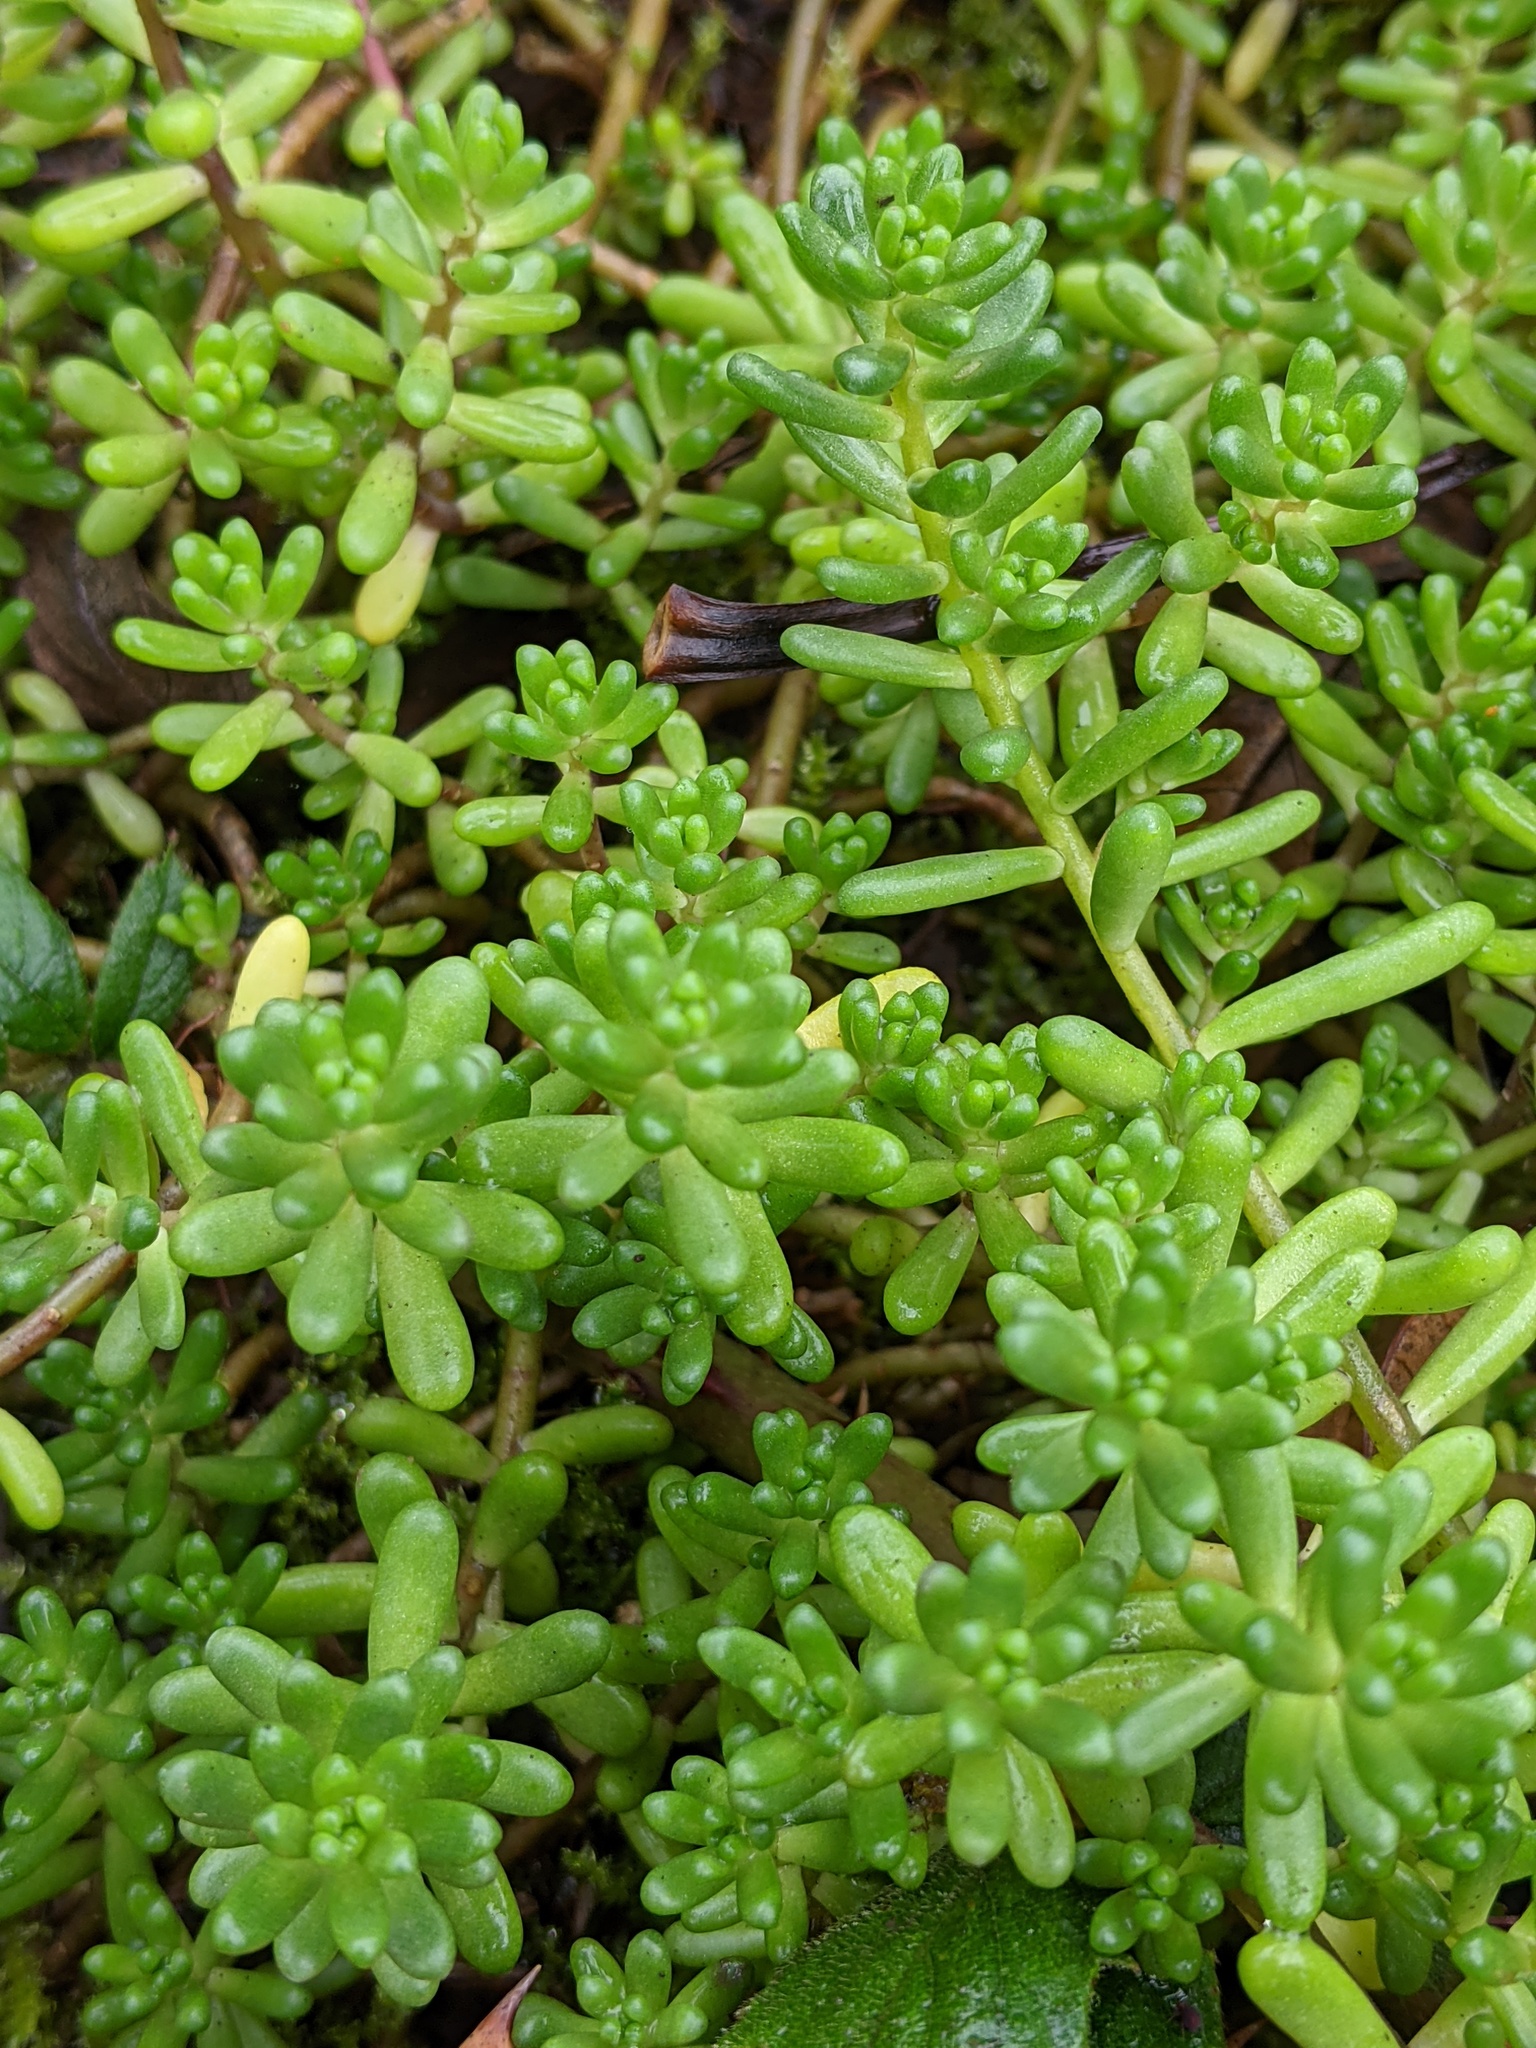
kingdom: Plantae
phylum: Tracheophyta
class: Magnoliopsida
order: Saxifragales
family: Crassulaceae
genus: Sedum
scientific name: Sedum album
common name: White stonecrop
